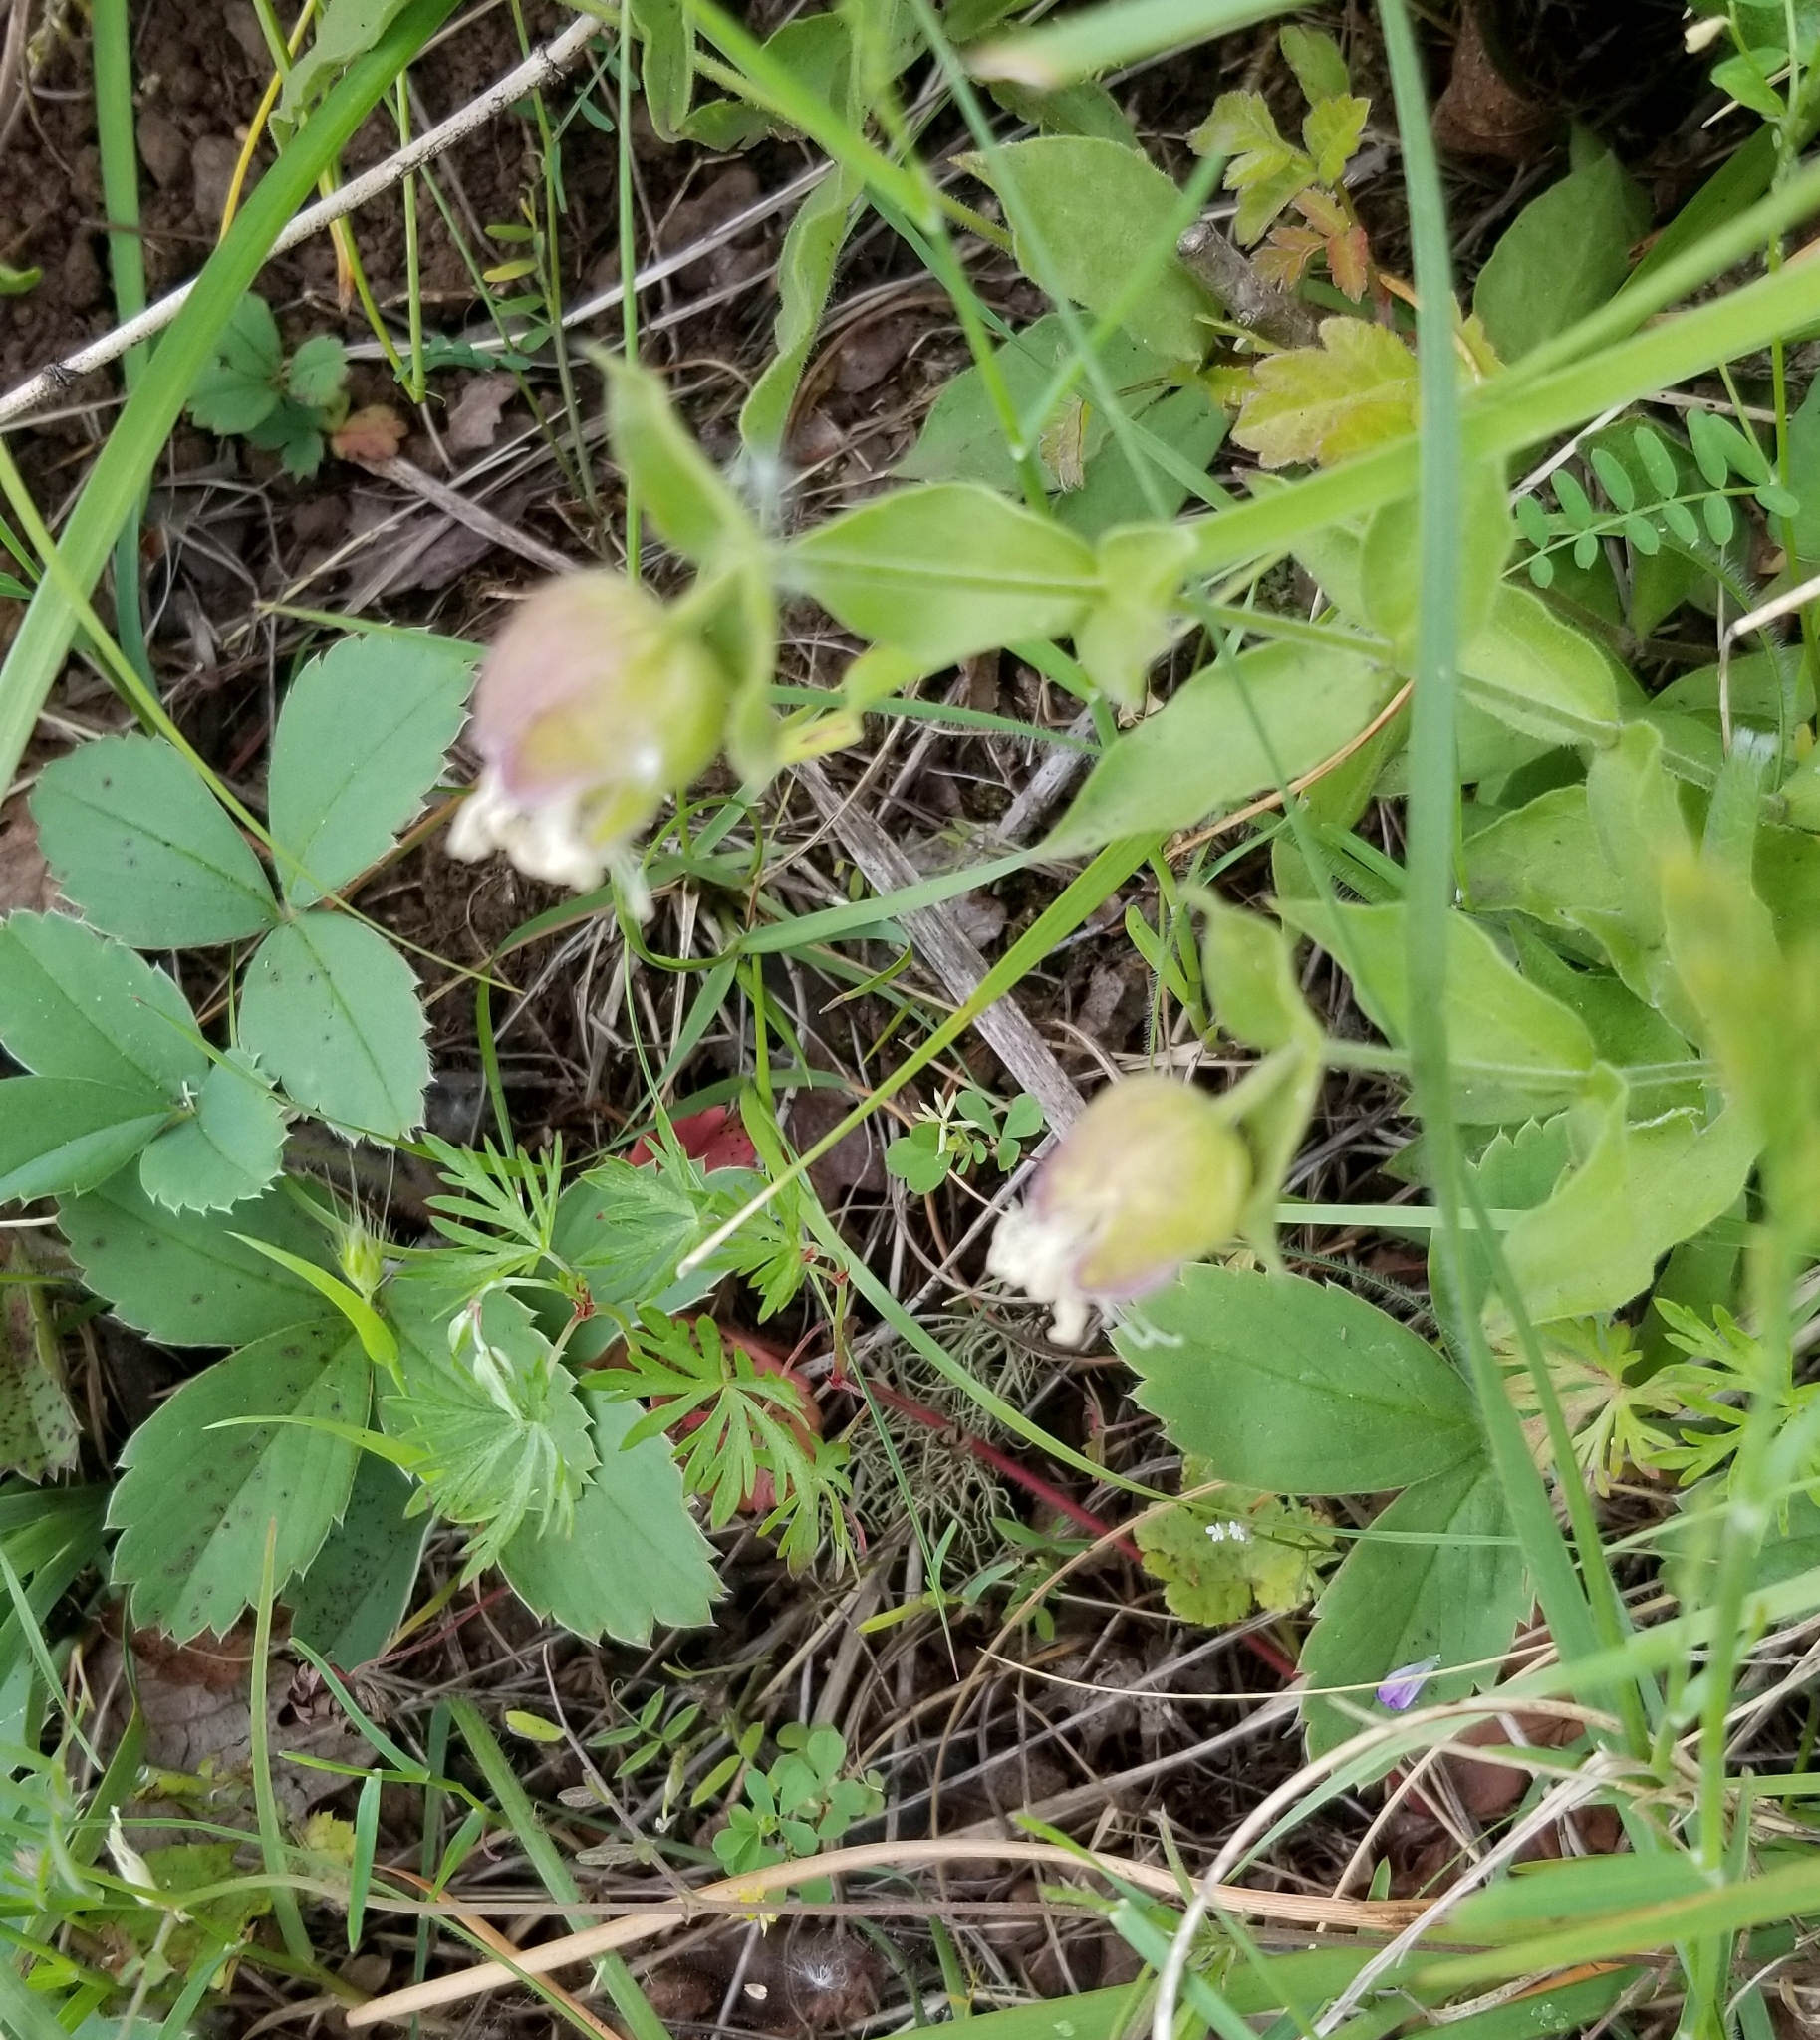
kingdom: Plantae
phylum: Tracheophyta
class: Magnoliopsida
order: Caryophyllales
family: Caryophyllaceae
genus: Silene
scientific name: Silene greenei
